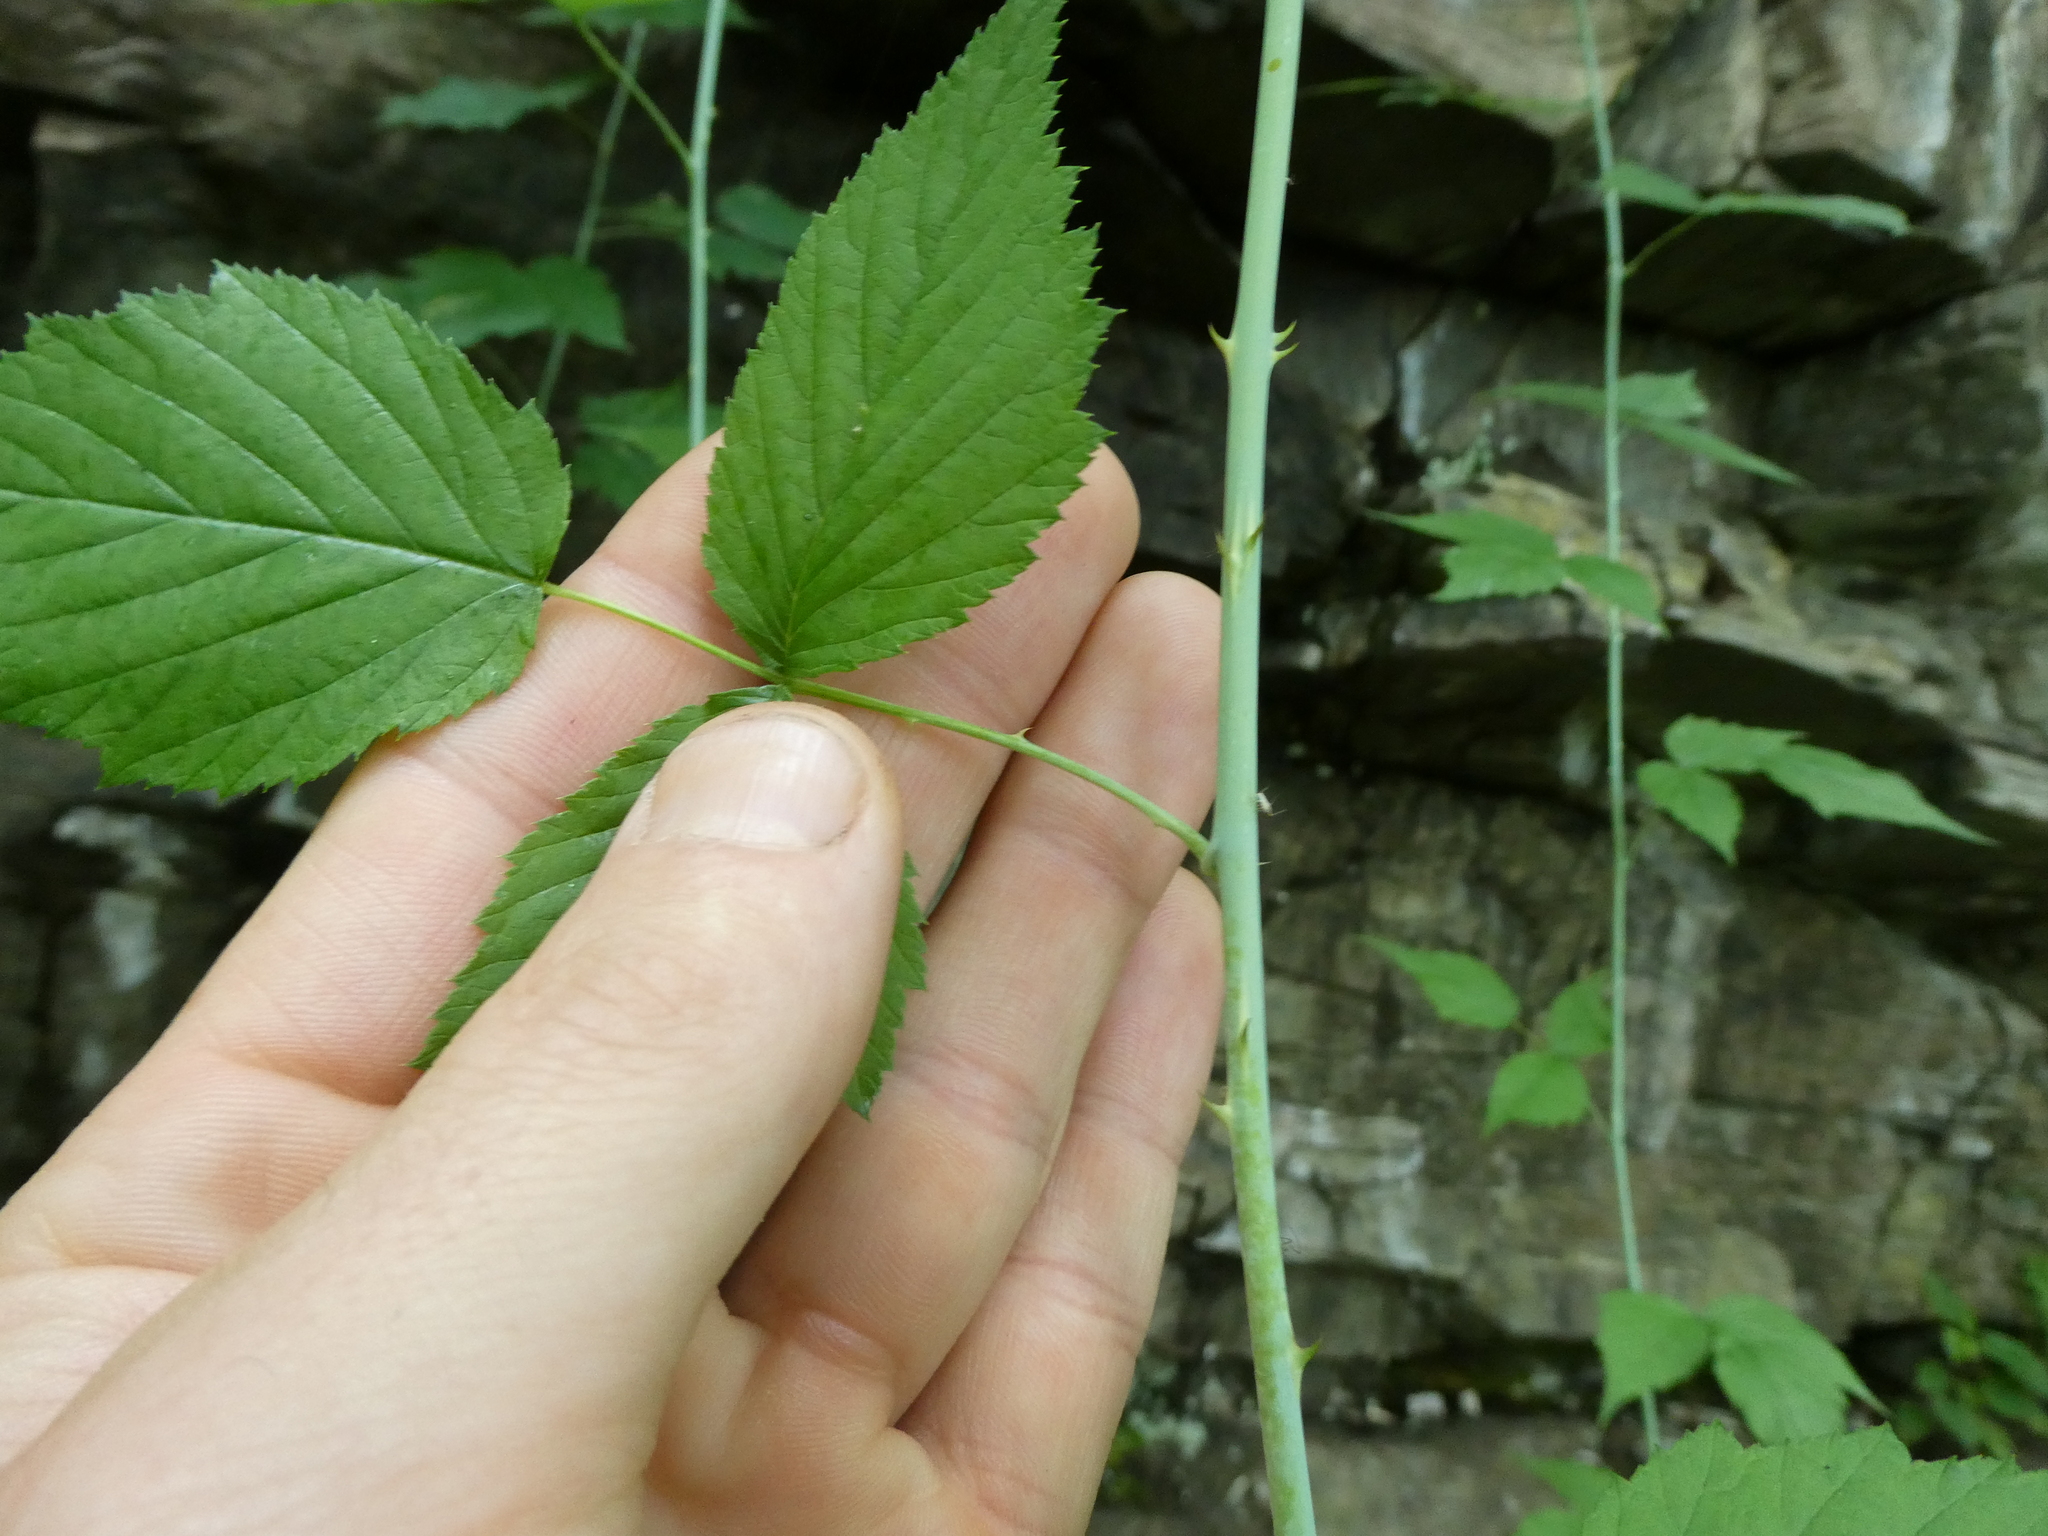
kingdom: Plantae
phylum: Tracheophyta
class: Magnoliopsida
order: Rosales
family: Rosaceae
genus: Rubus
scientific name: Rubus occidentalis
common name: Black raspberry
